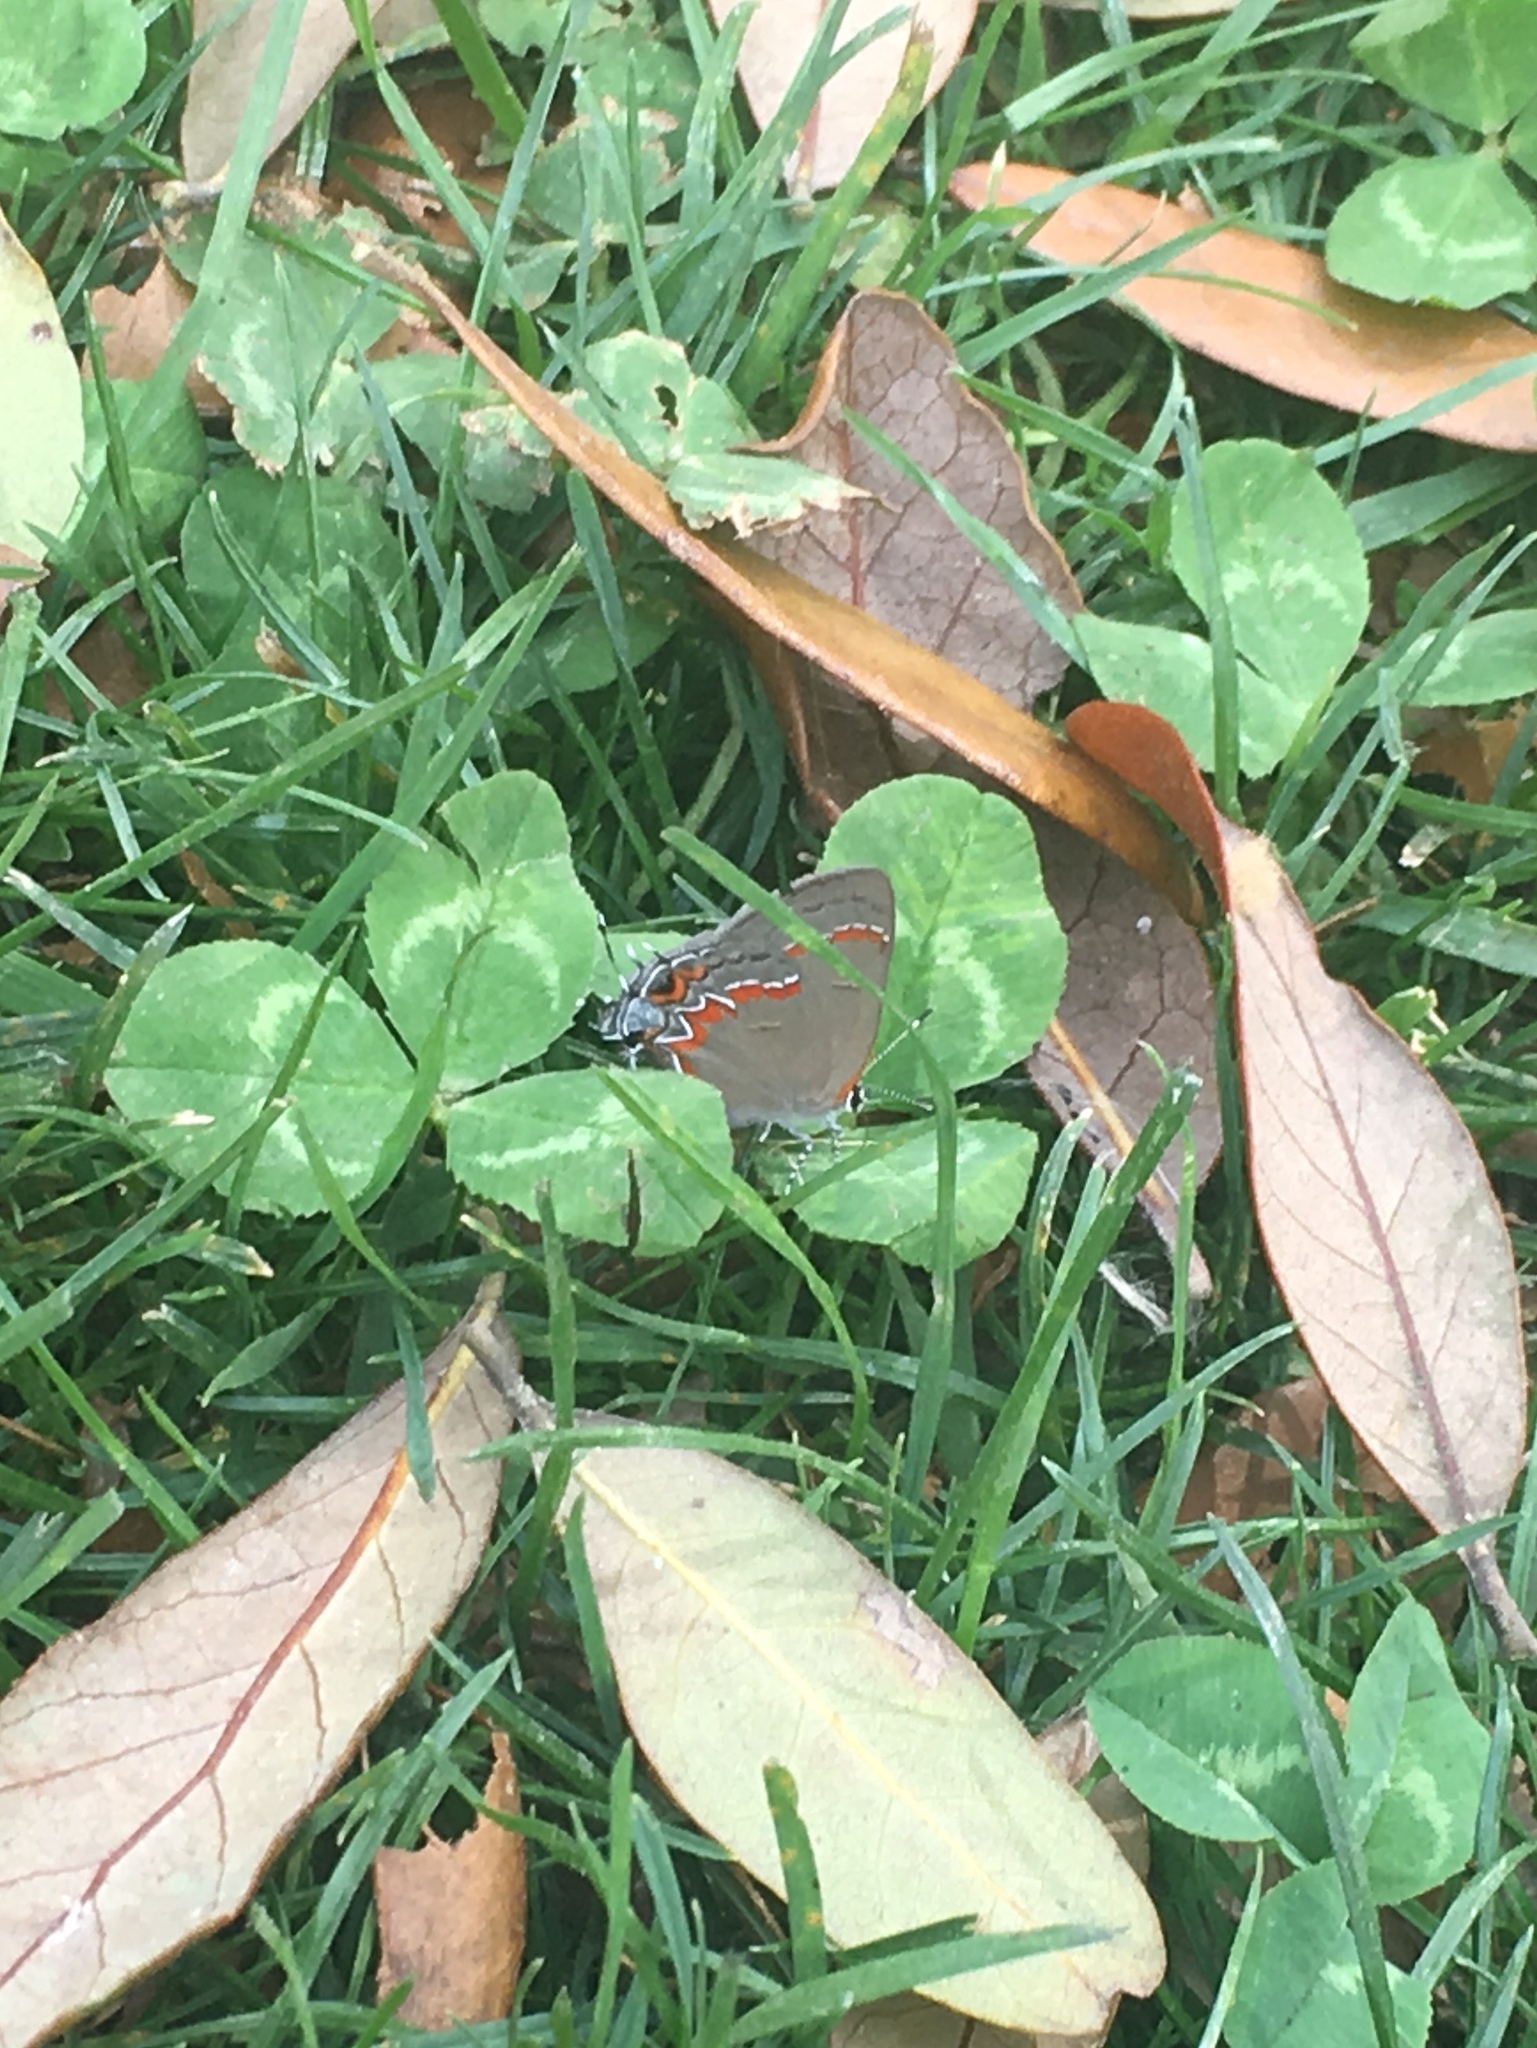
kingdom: Animalia
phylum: Arthropoda
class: Insecta
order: Lepidoptera
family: Lycaenidae
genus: Calycopis
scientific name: Calycopis cecrops
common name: Red-banded hairstreak
